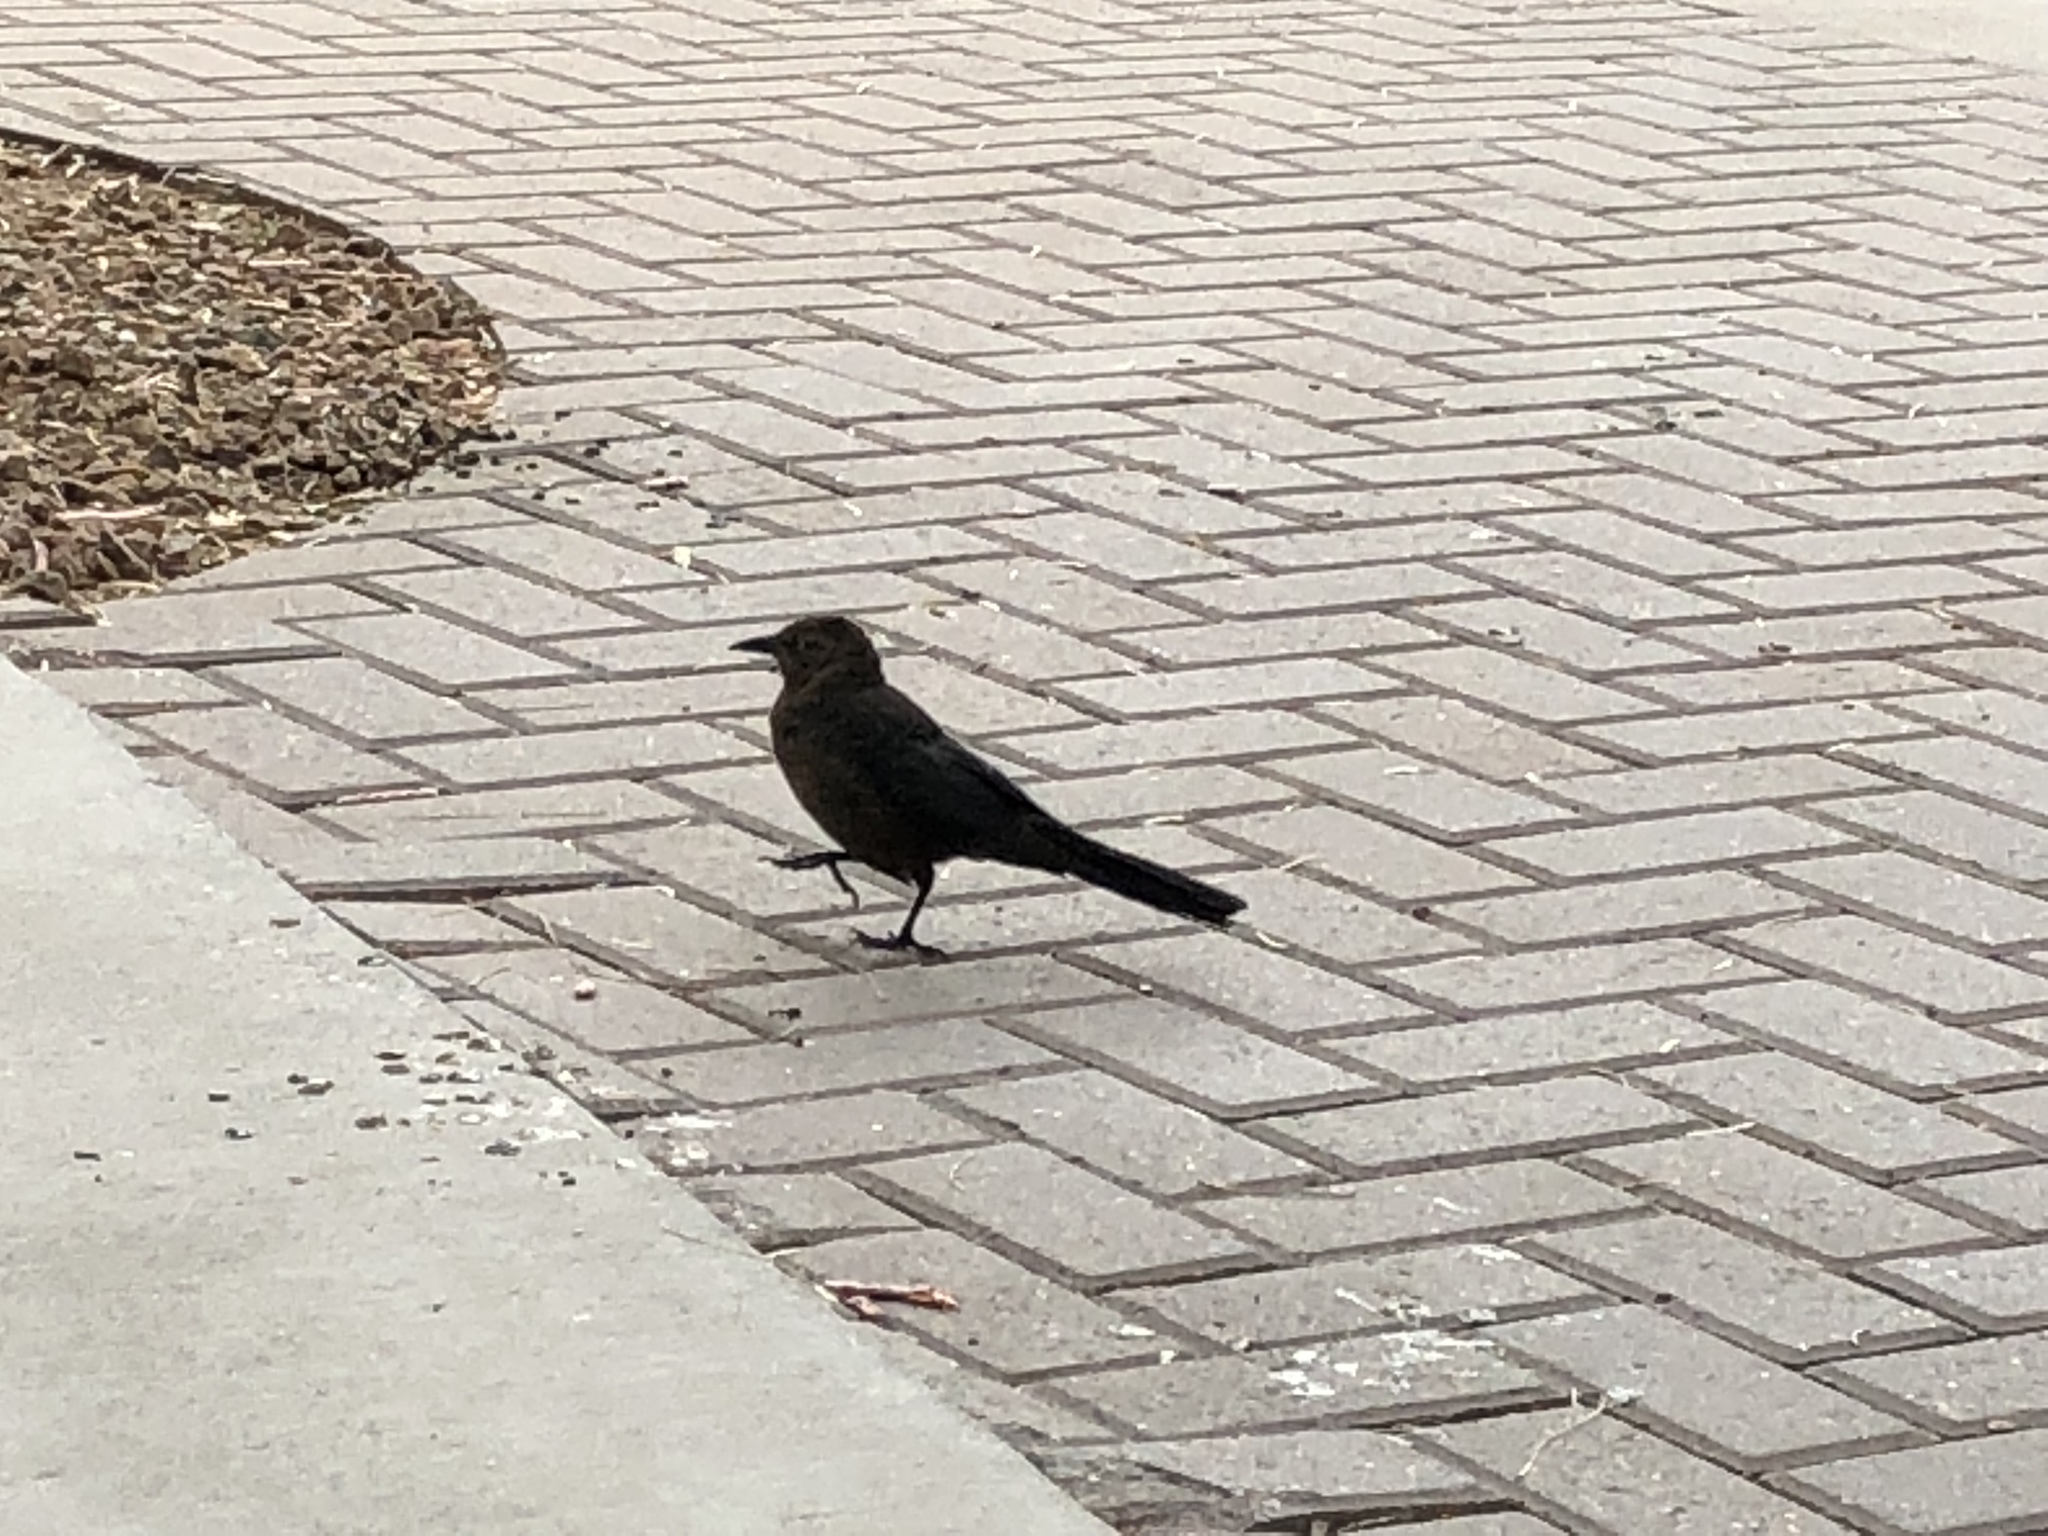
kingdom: Animalia
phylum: Chordata
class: Aves
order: Passeriformes
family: Icteridae
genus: Quiscalus
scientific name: Quiscalus mexicanus
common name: Great-tailed grackle
